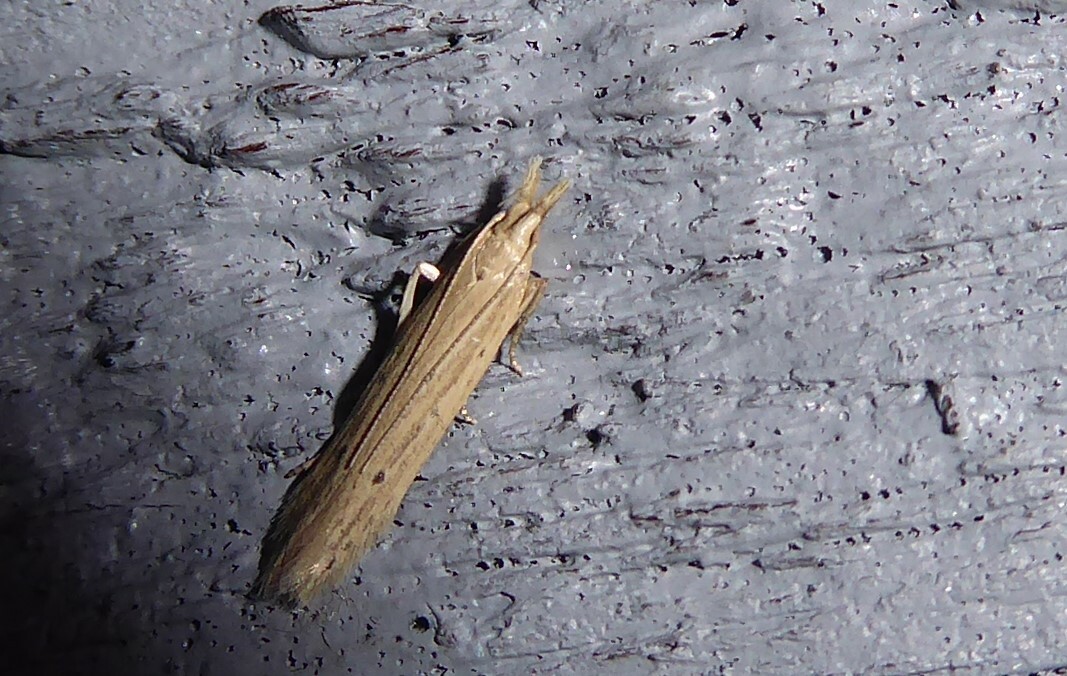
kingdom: Animalia
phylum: Arthropoda
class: Insecta
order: Lepidoptera
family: Gelechiidae
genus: Epiphthora
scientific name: Epiphthora calamogonus
